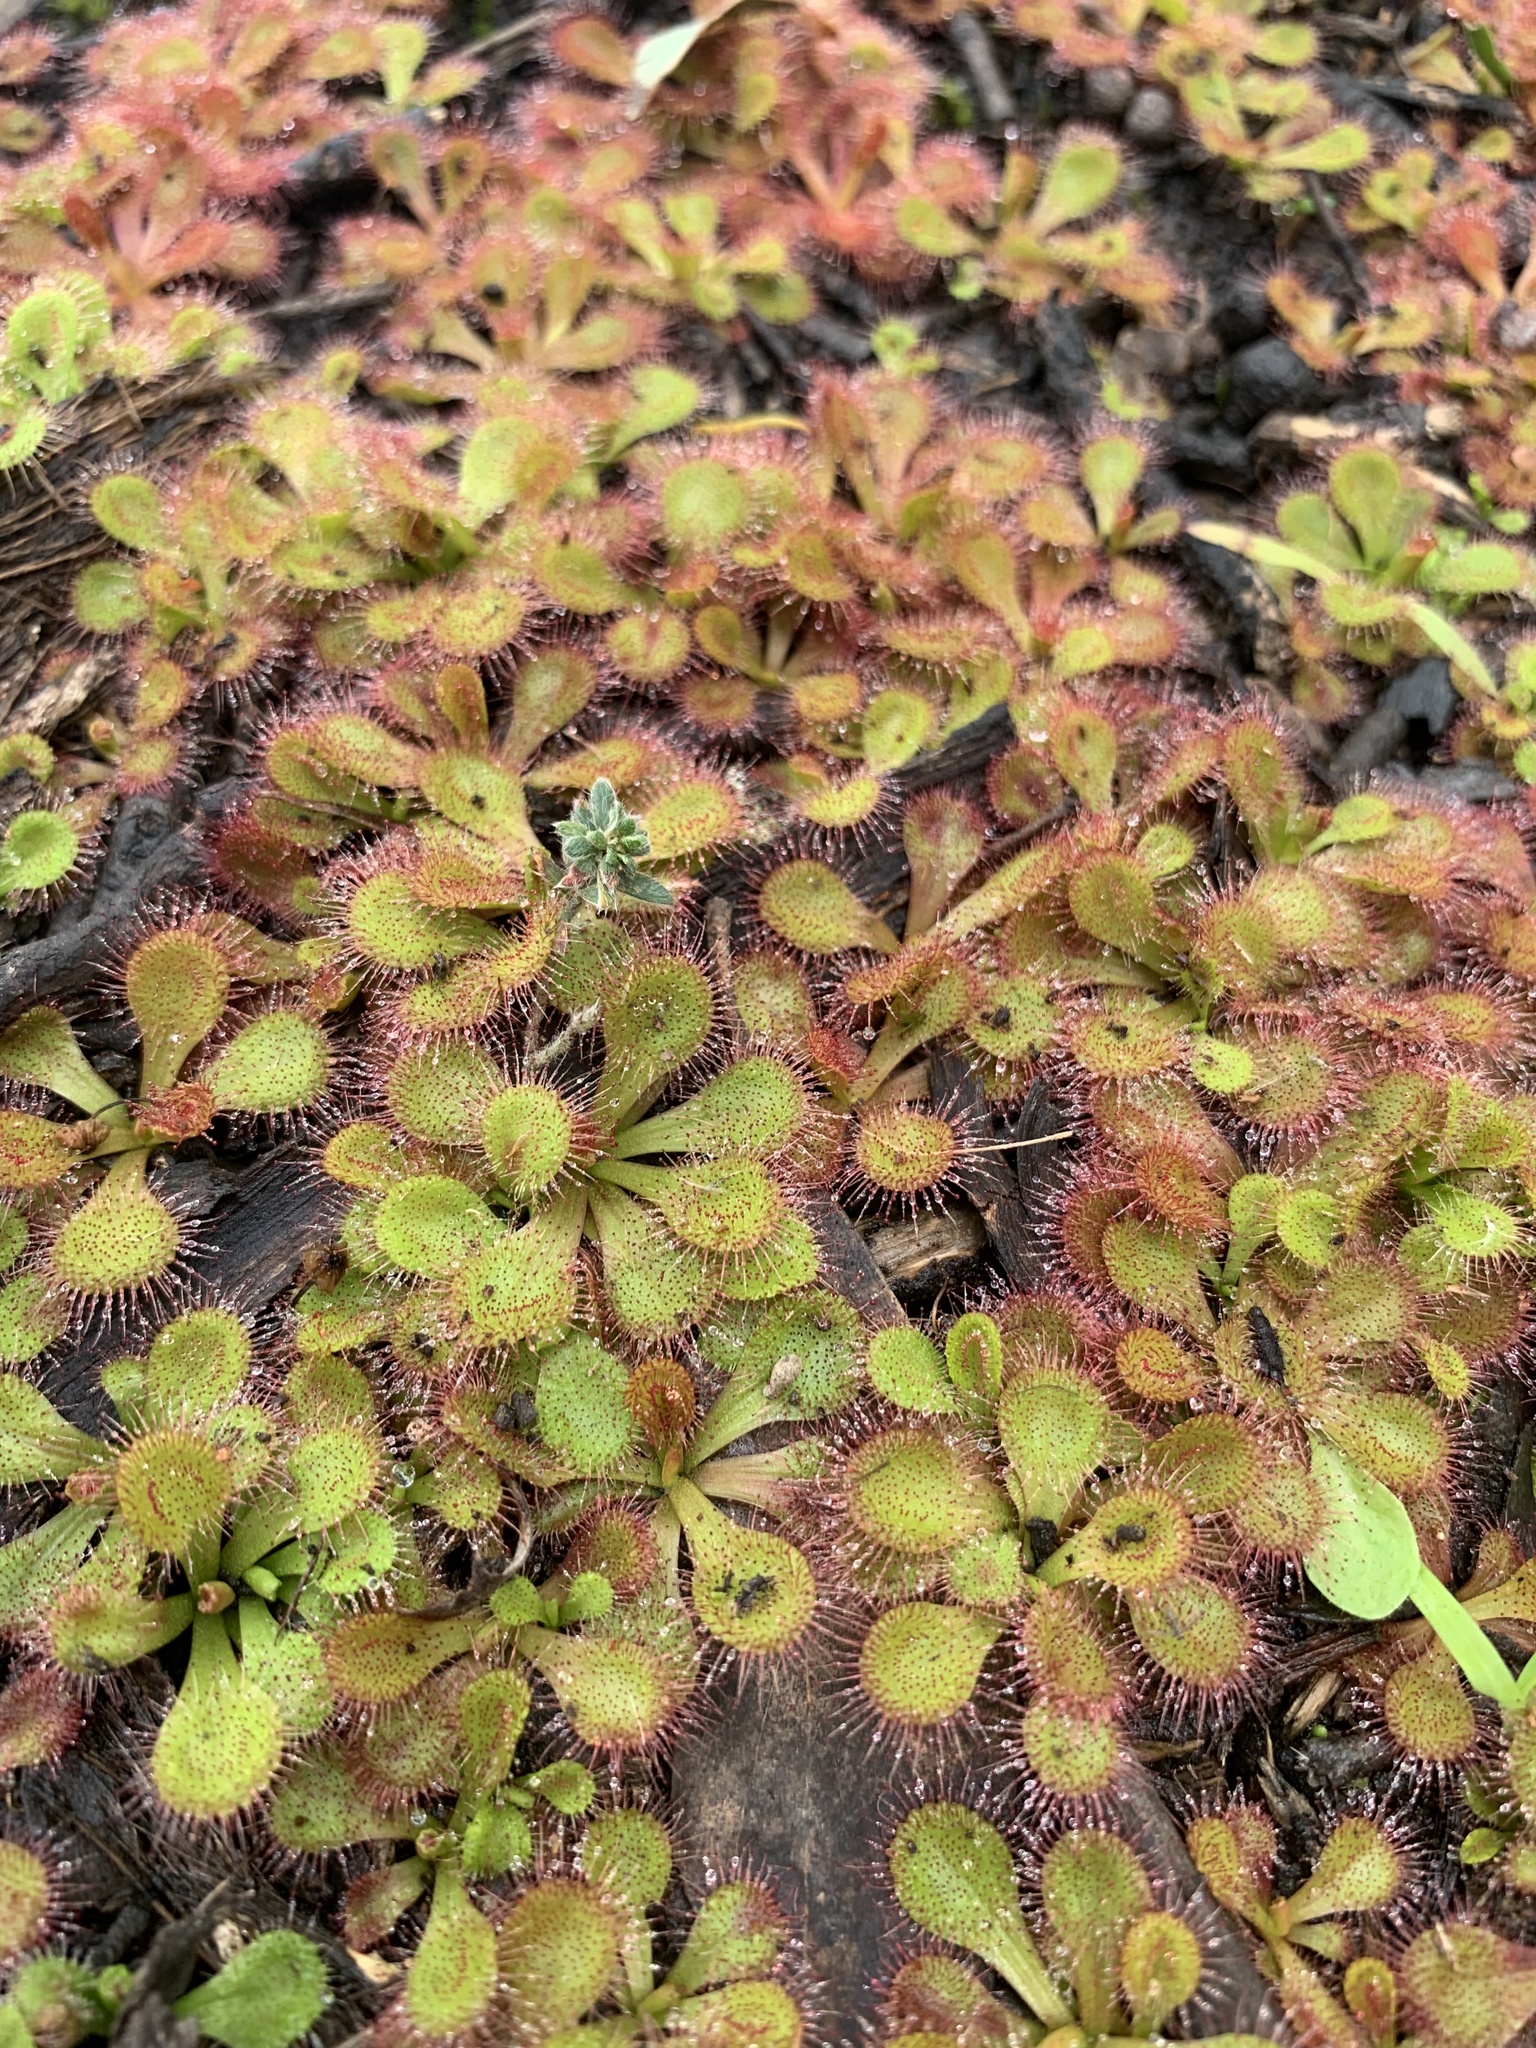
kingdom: Plantae
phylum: Tracheophyta
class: Magnoliopsida
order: Caryophyllales
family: Droseraceae
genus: Drosera
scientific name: Drosera aberrans
